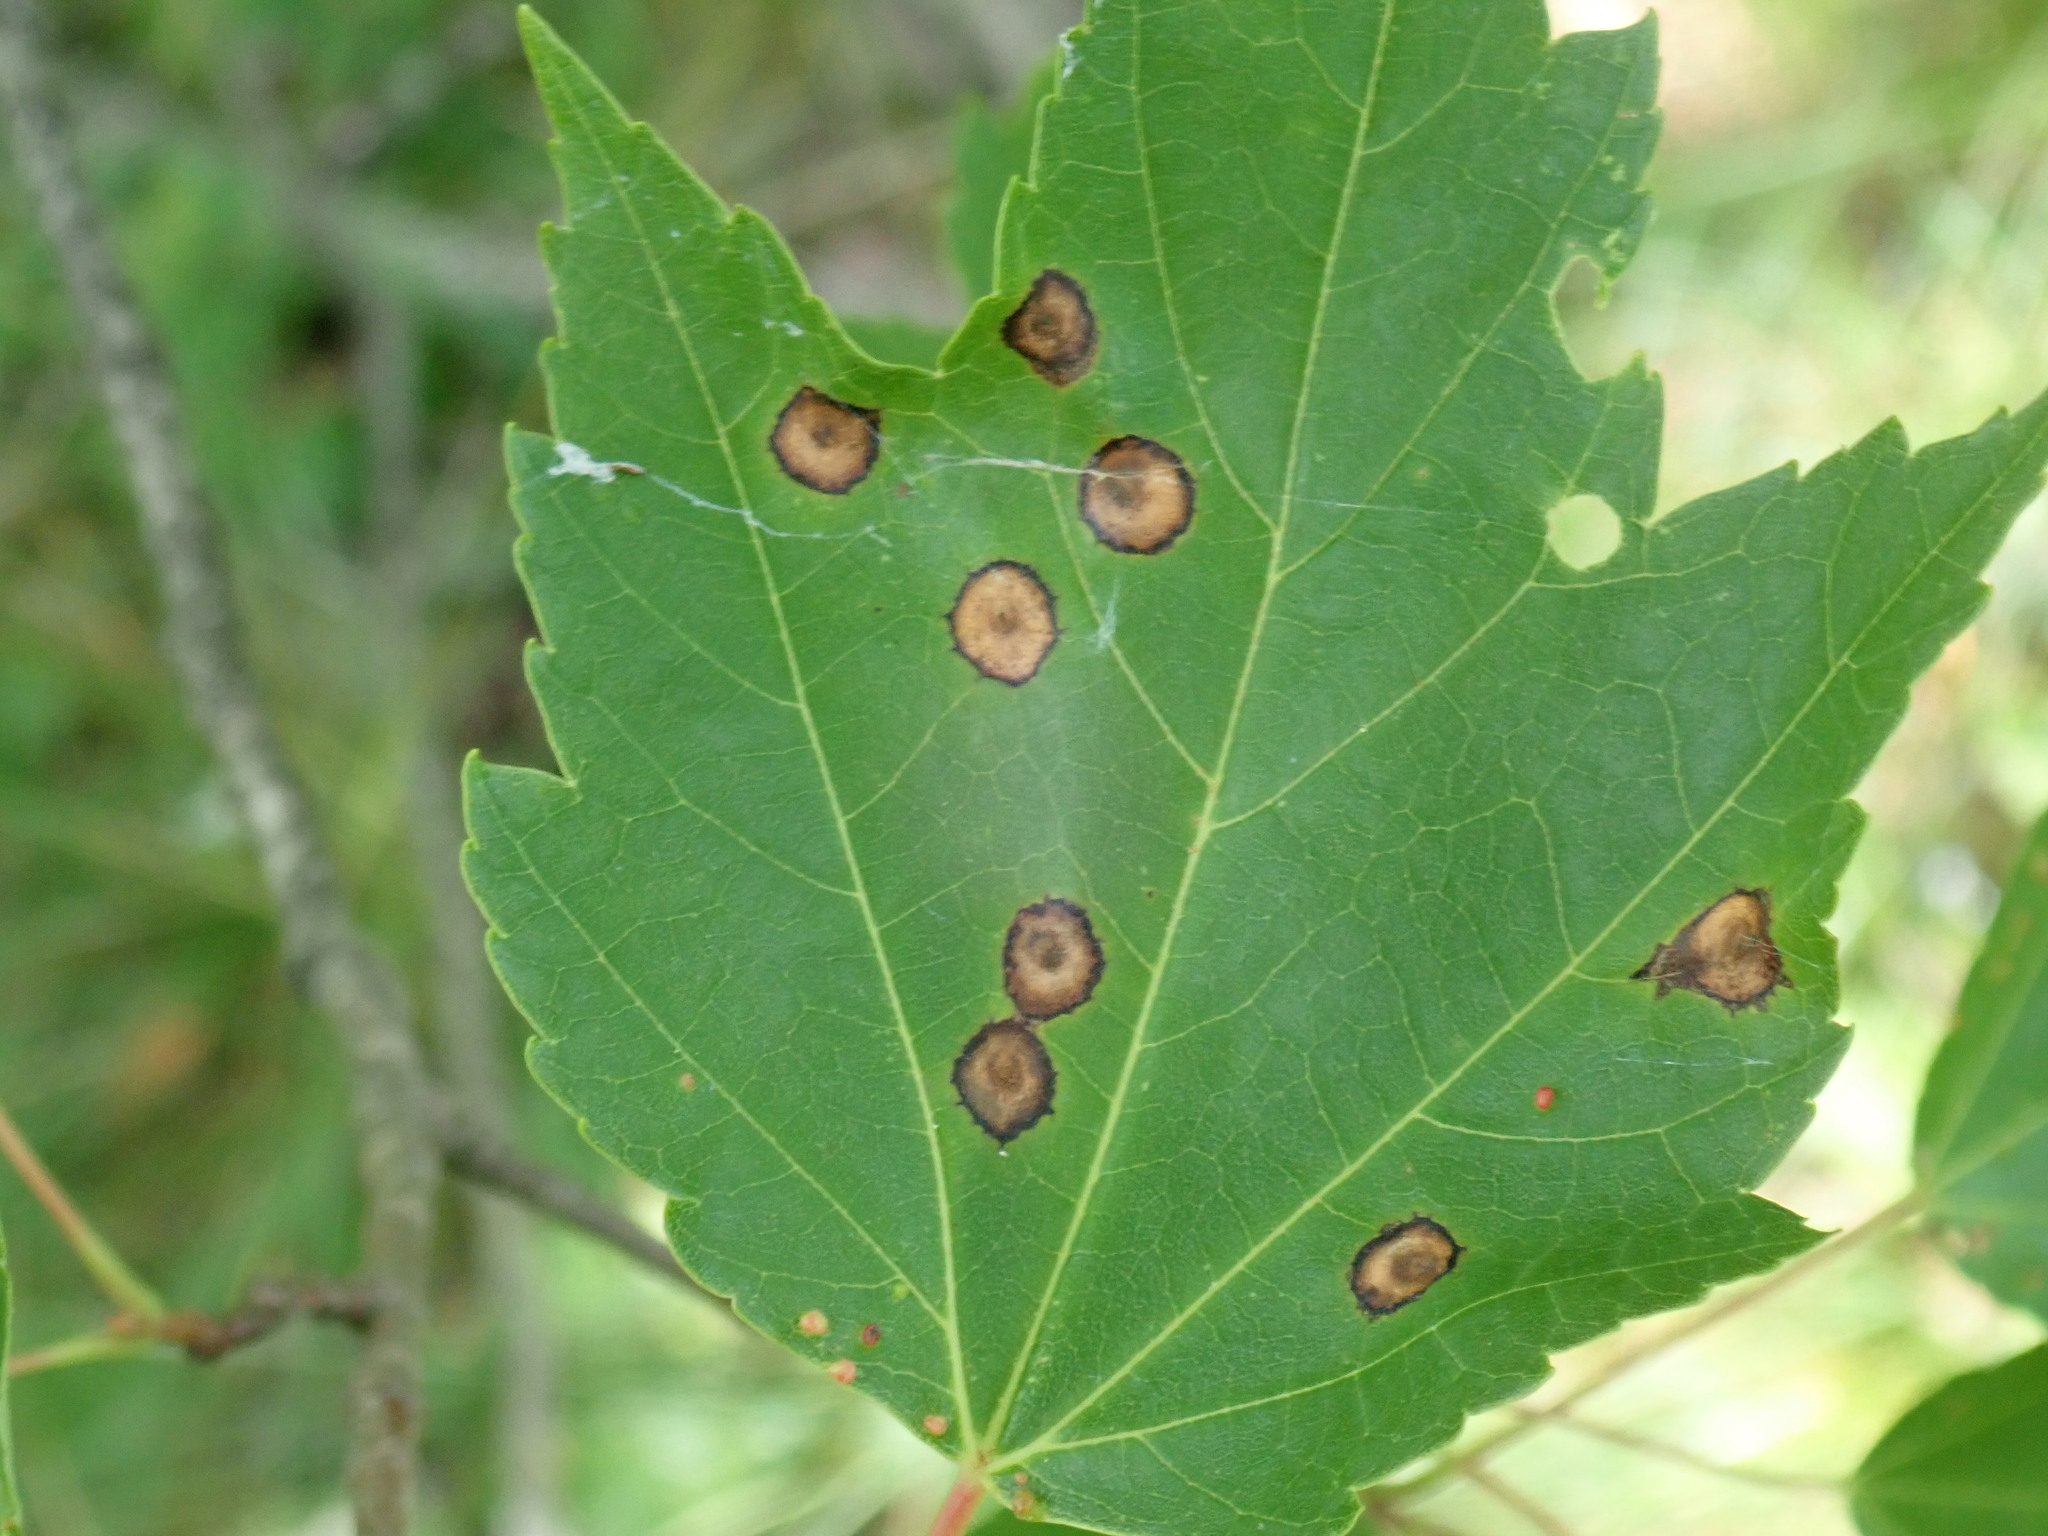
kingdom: Animalia
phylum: Arthropoda
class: Insecta
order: Diptera
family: Cecidomyiidae
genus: Acericecis
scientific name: Acericecis ocellaris
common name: Ocellate gall midge
